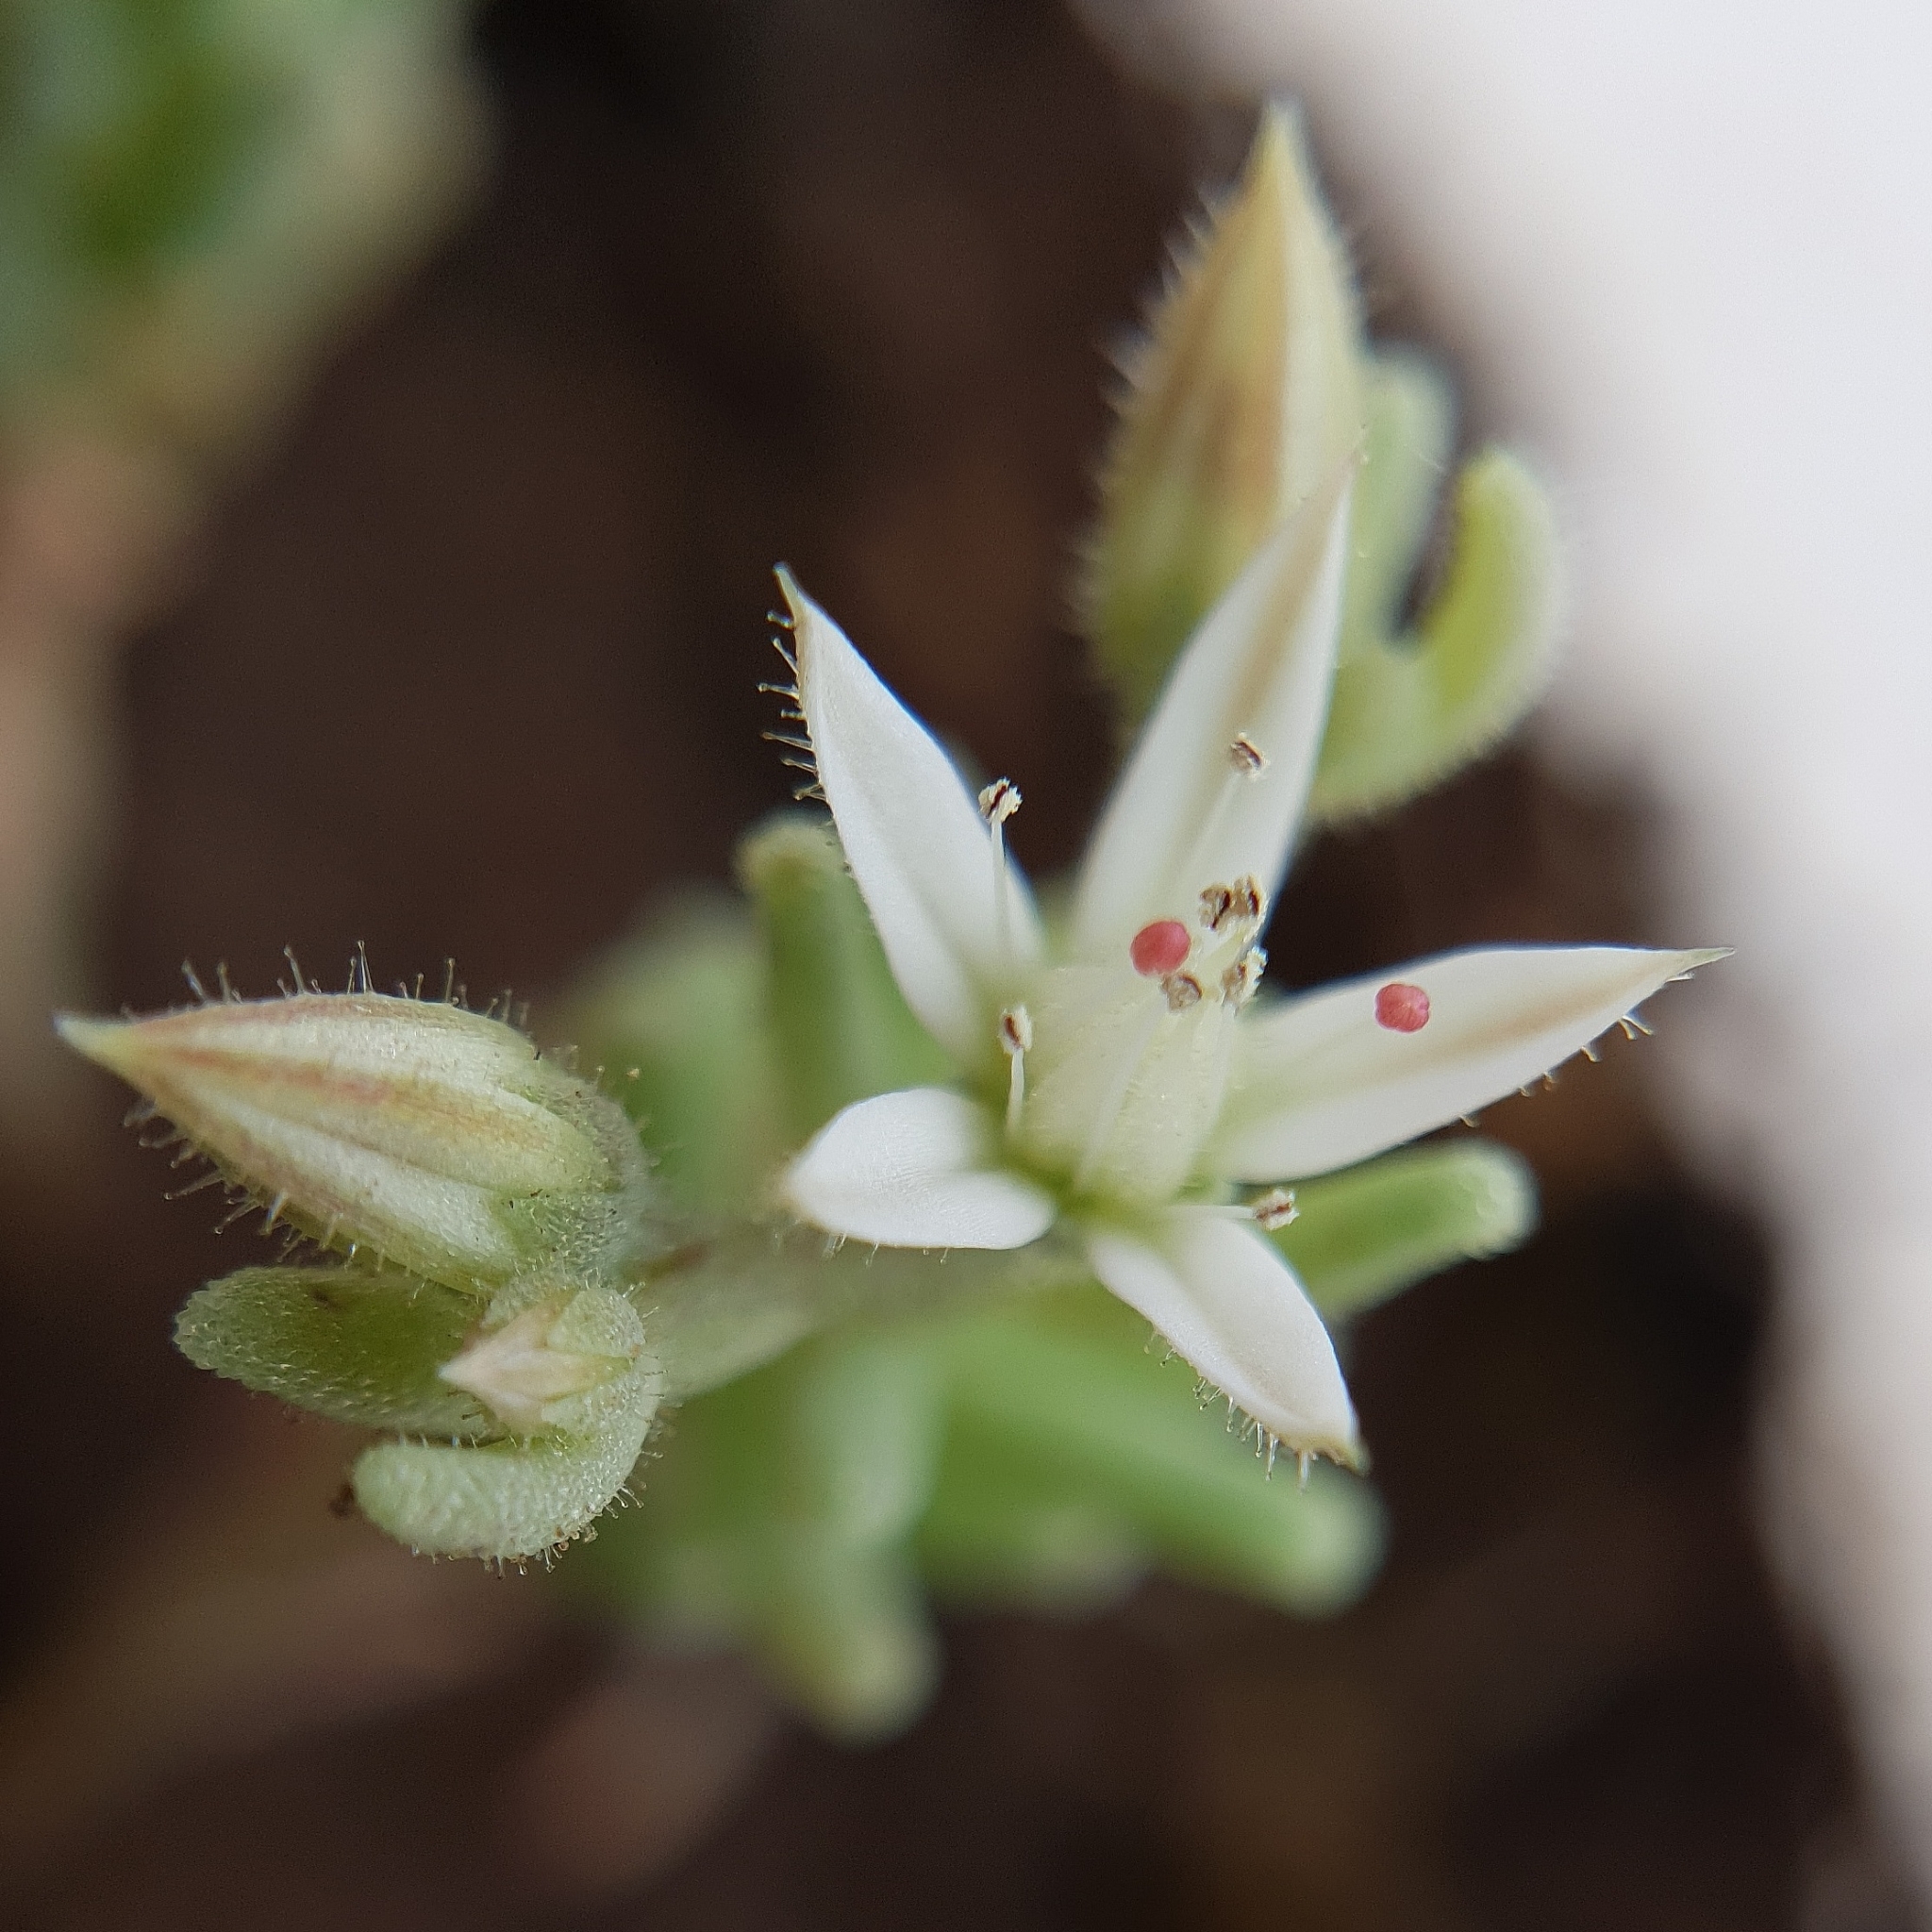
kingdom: Plantae
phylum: Tracheophyta
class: Magnoliopsida
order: Saxifragales
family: Crassulaceae
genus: Sedum
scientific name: Sedum rubens
